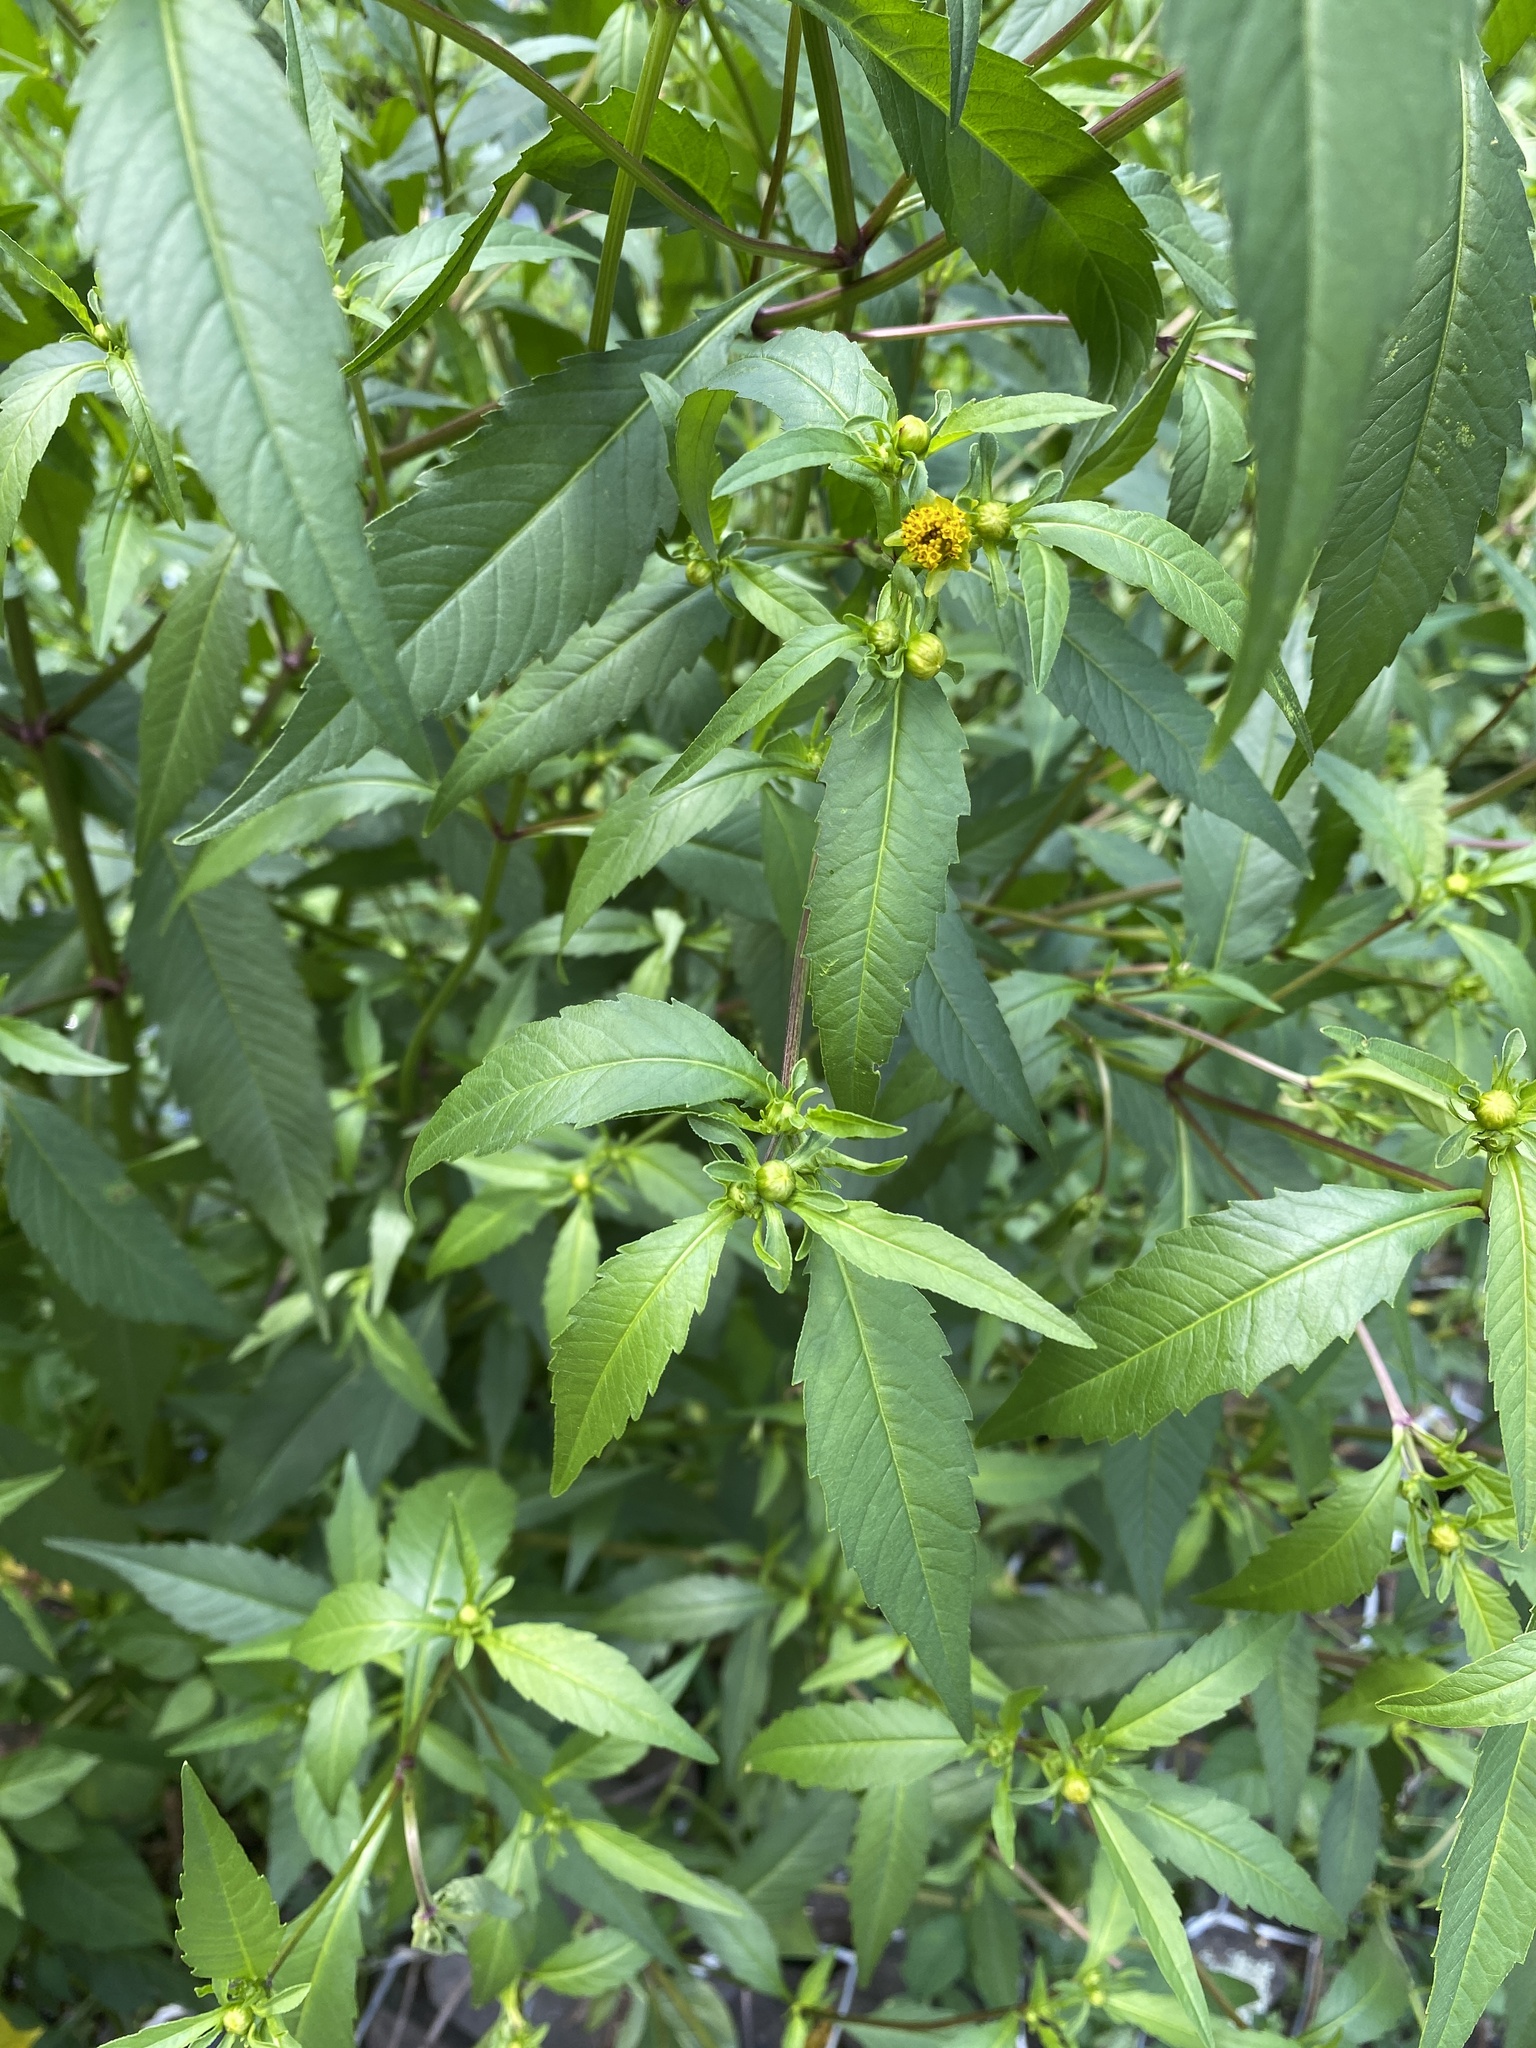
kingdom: Plantae
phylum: Tracheophyta
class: Magnoliopsida
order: Asterales
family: Asteraceae
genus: Bidens
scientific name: Bidens cernua
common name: Nodding bur-marigold
